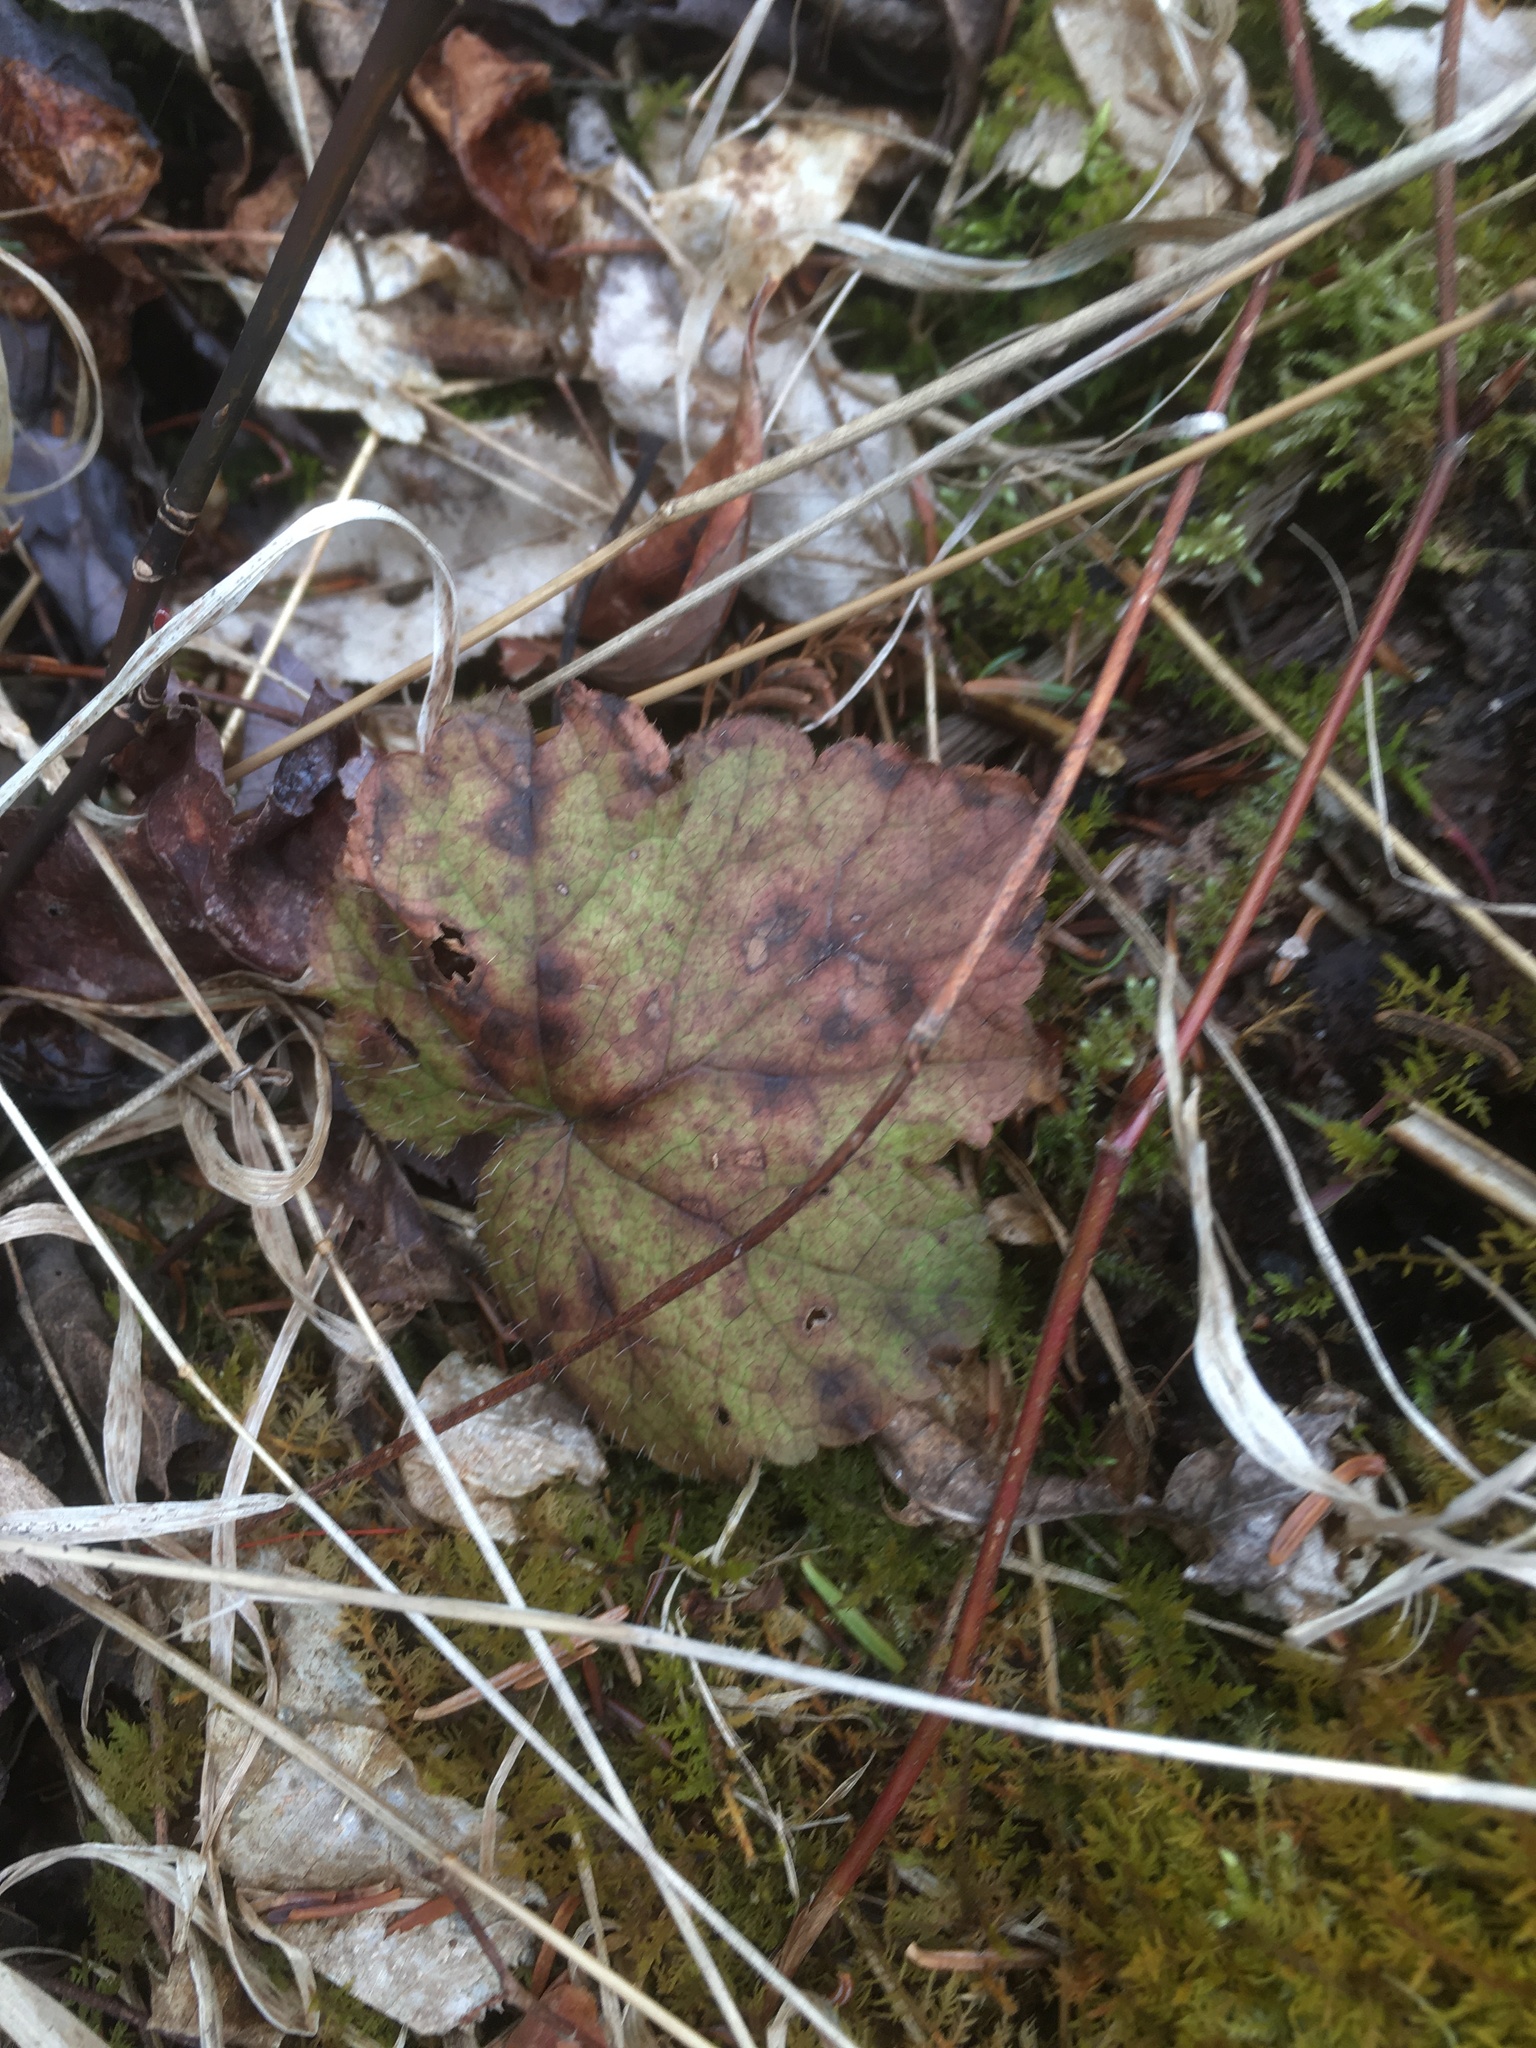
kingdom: Plantae
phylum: Tracheophyta
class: Magnoliopsida
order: Saxifragales
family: Saxifragaceae
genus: Tiarella
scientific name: Tiarella stolonifera
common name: Stoloniferous foamflower
